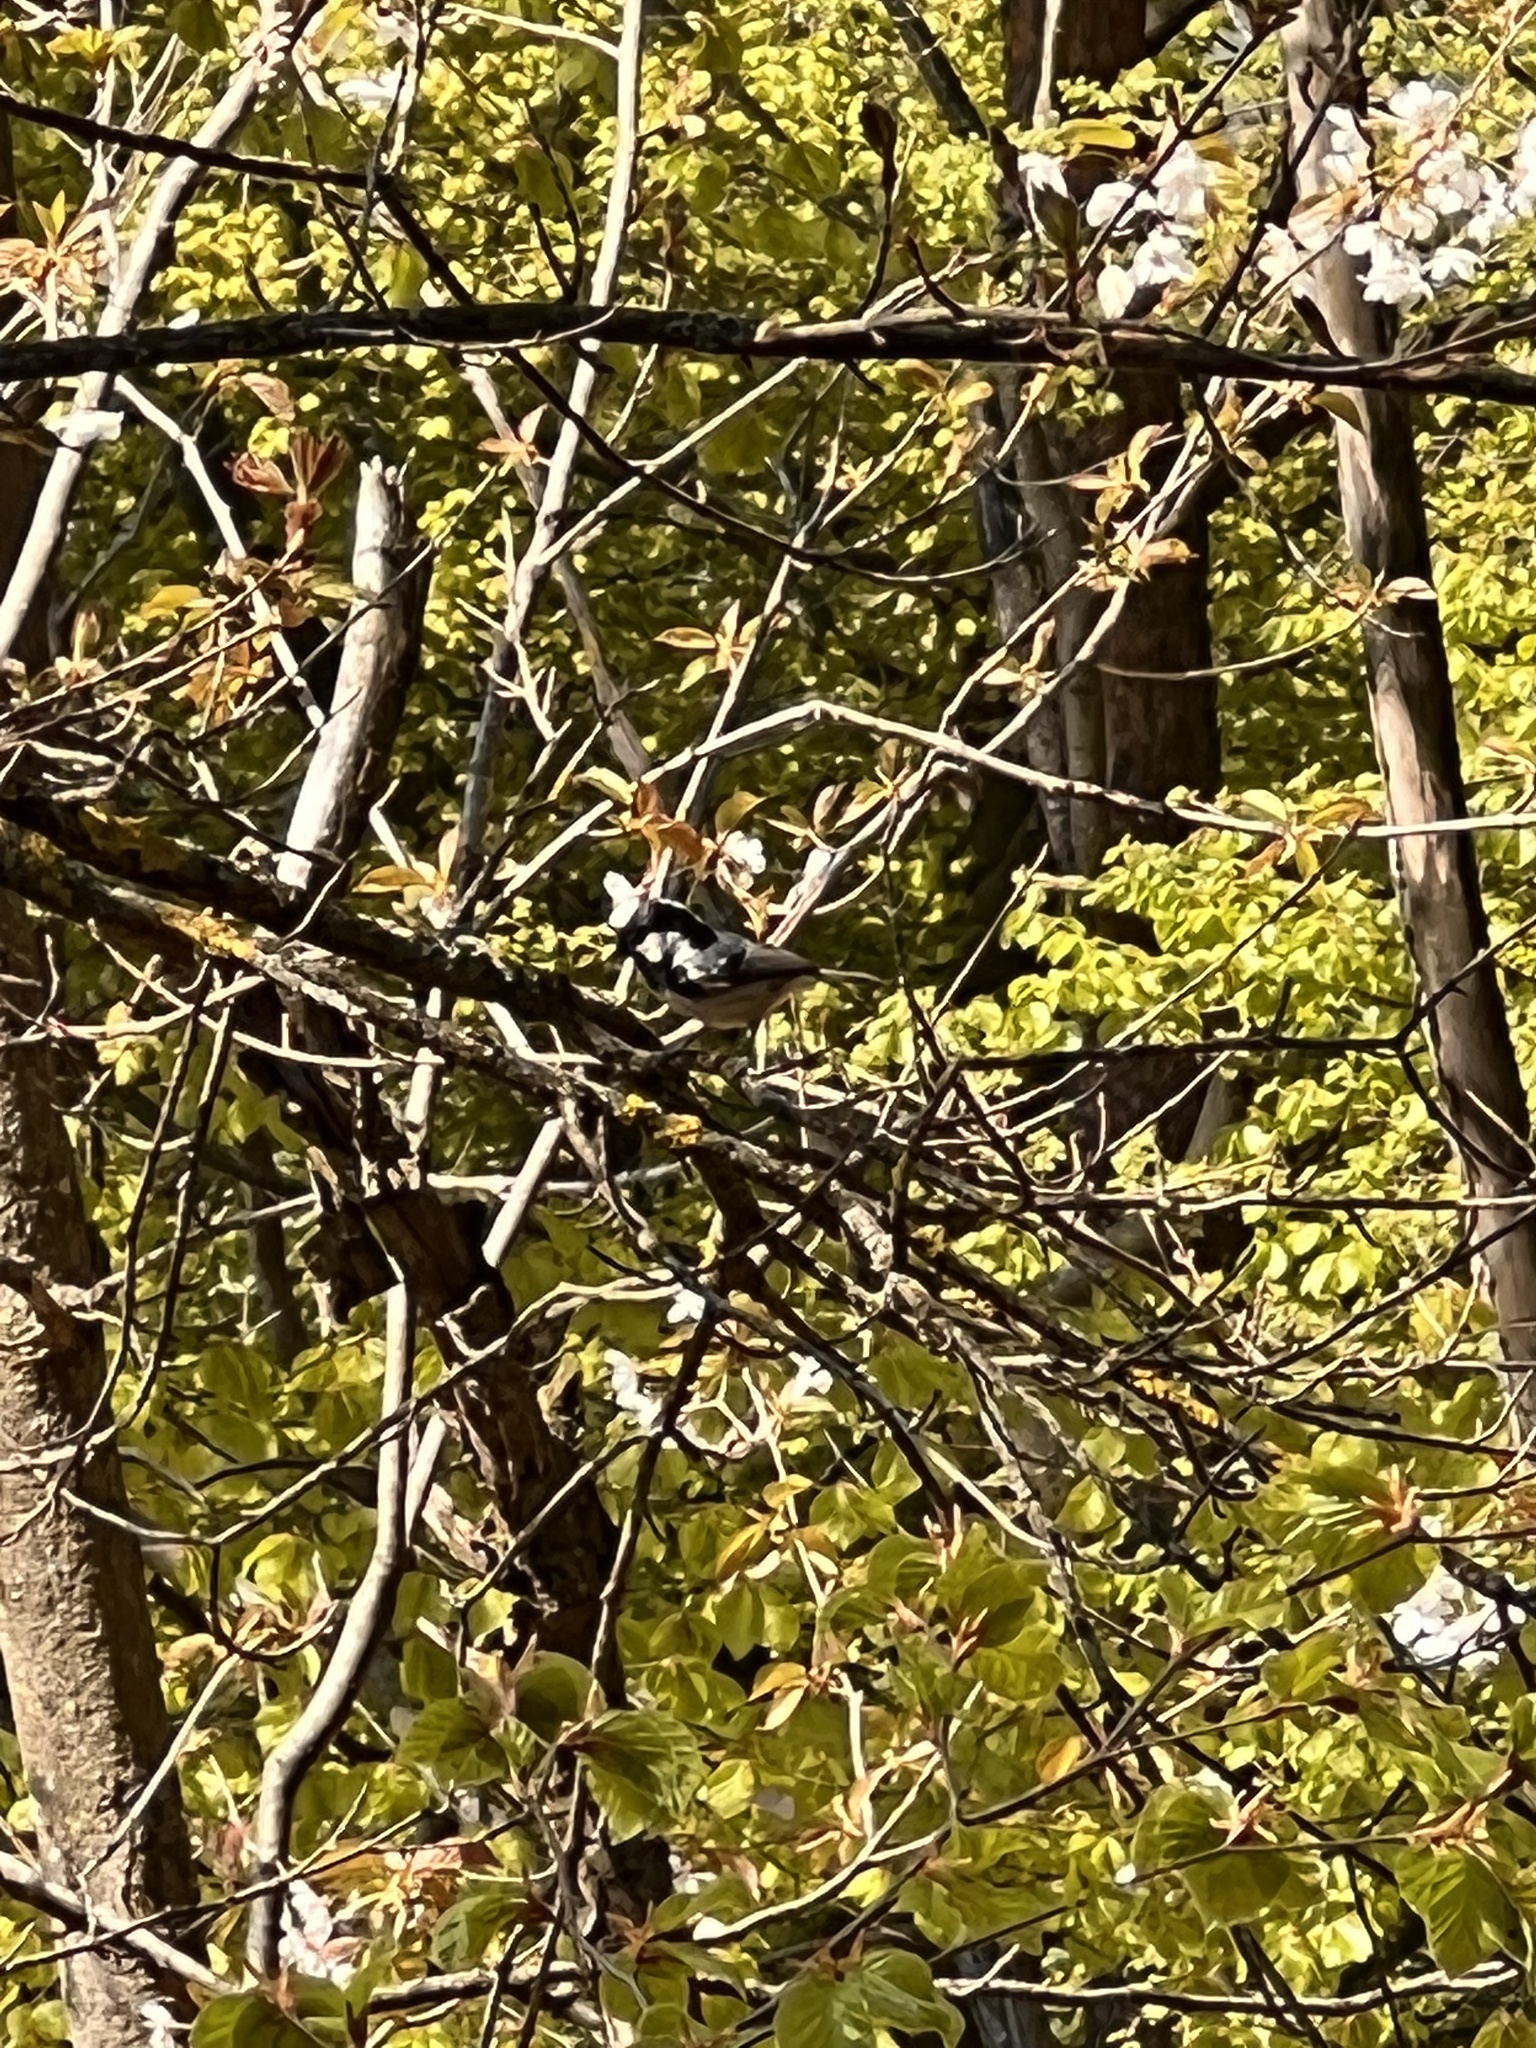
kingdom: Animalia
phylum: Chordata
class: Aves
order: Passeriformes
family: Paridae
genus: Periparus
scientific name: Periparus ater
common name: Coal tit
